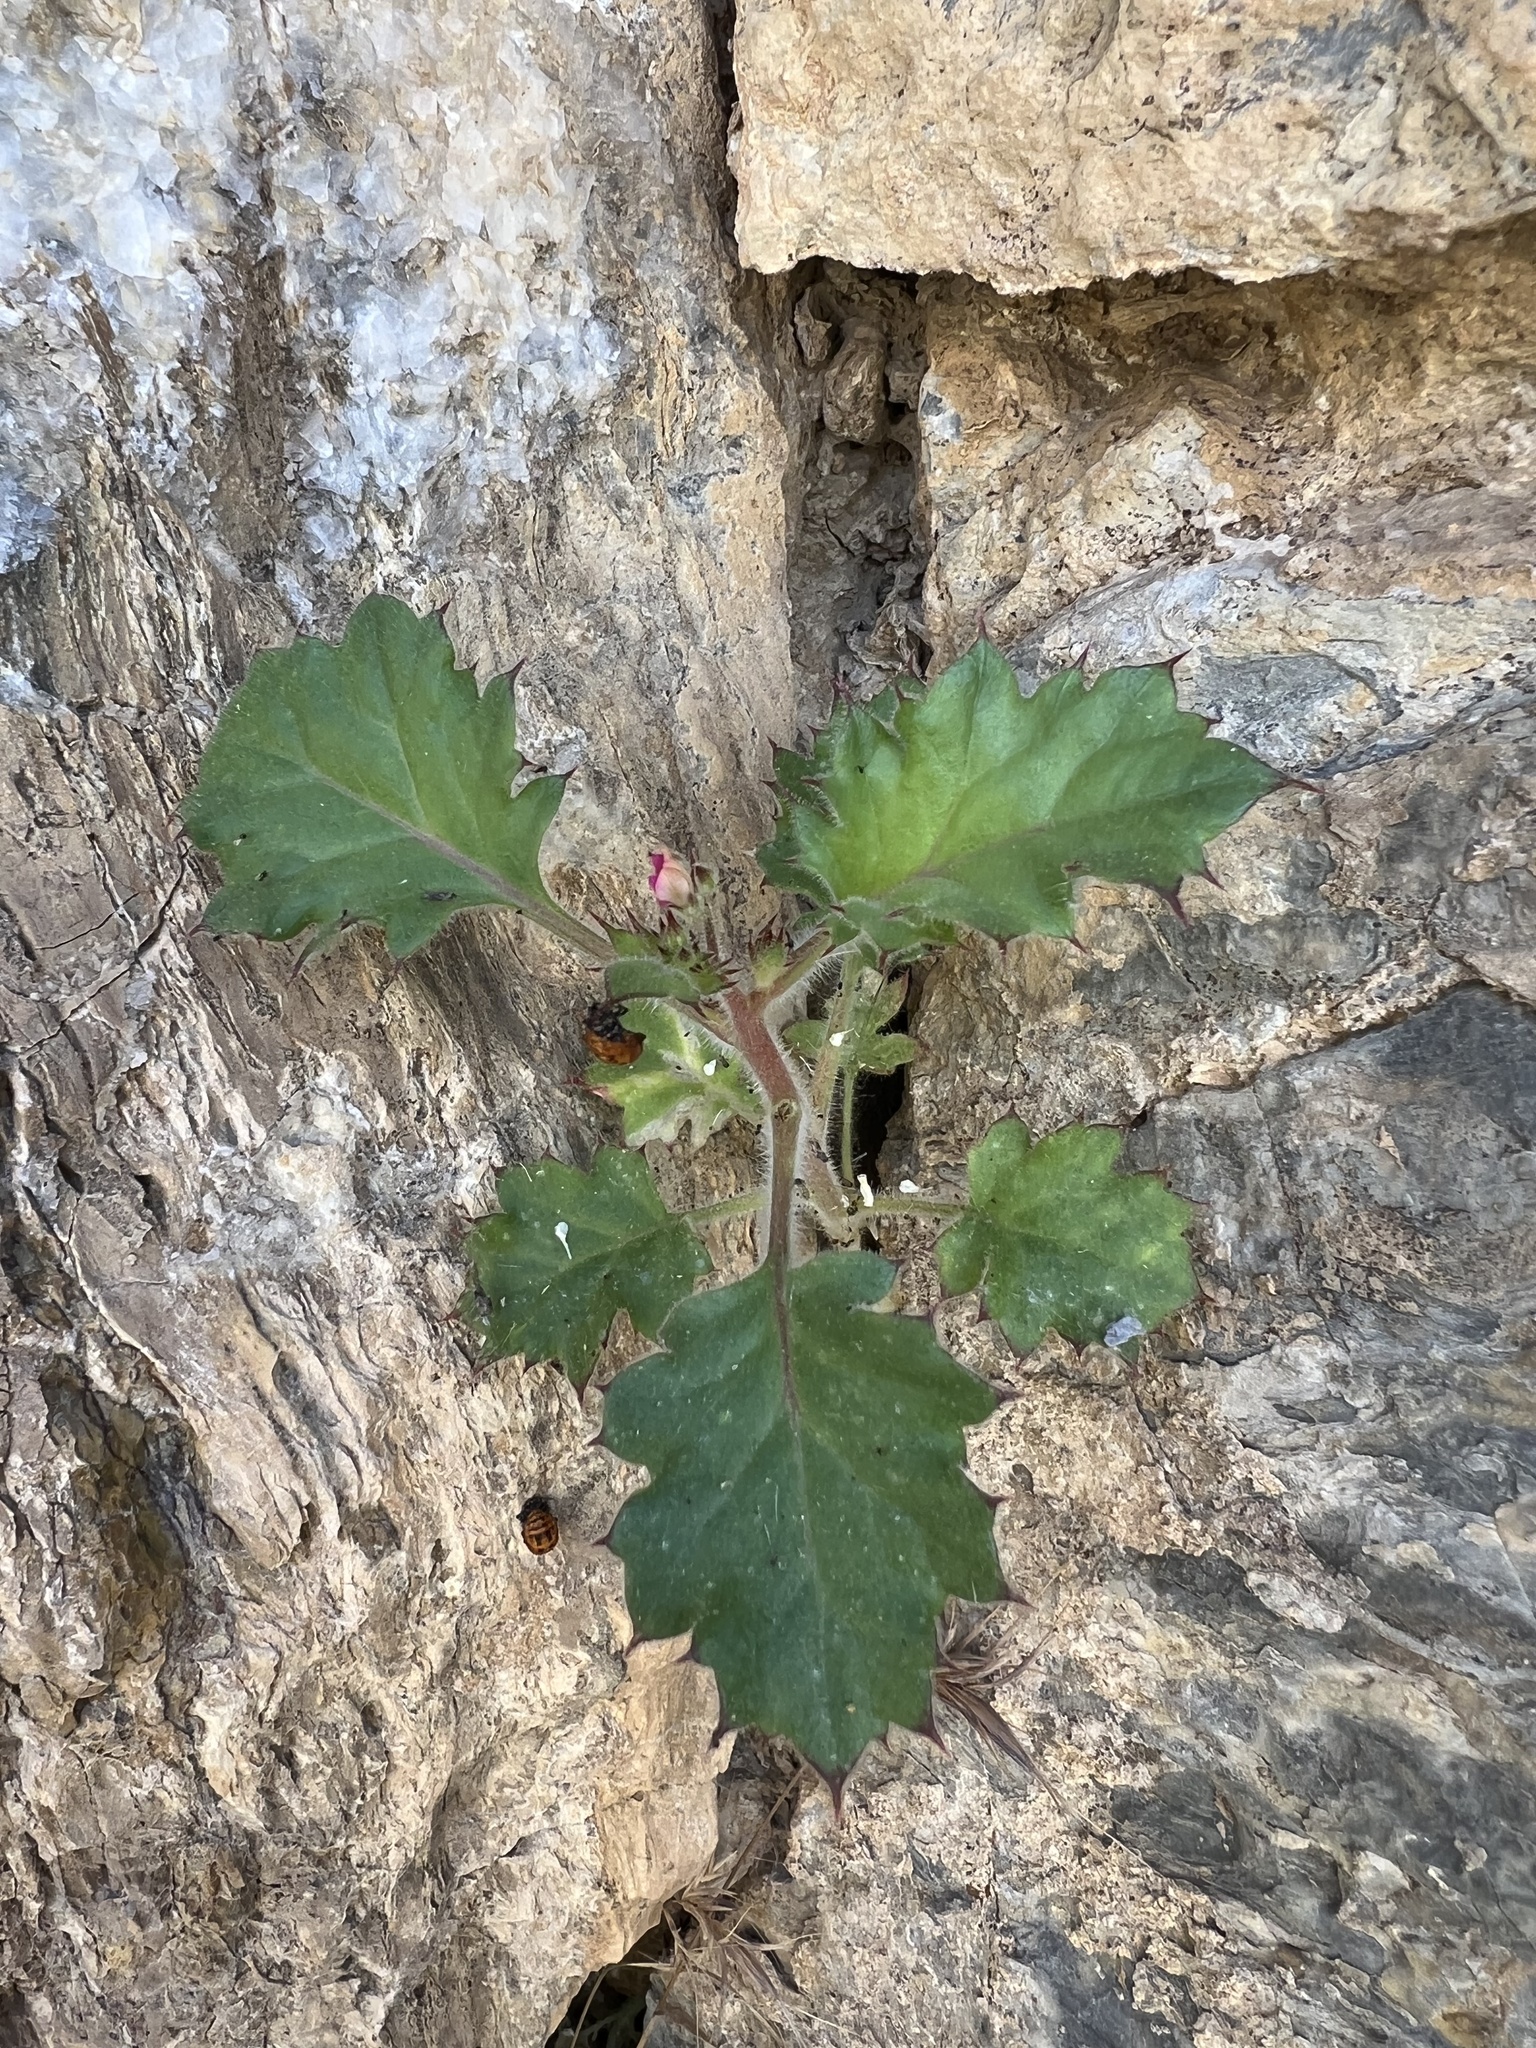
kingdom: Plantae
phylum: Tracheophyta
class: Magnoliopsida
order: Ericales
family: Polemoniaceae
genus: Aliciella
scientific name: Aliciella latifolia
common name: Broad-leaf gilia
